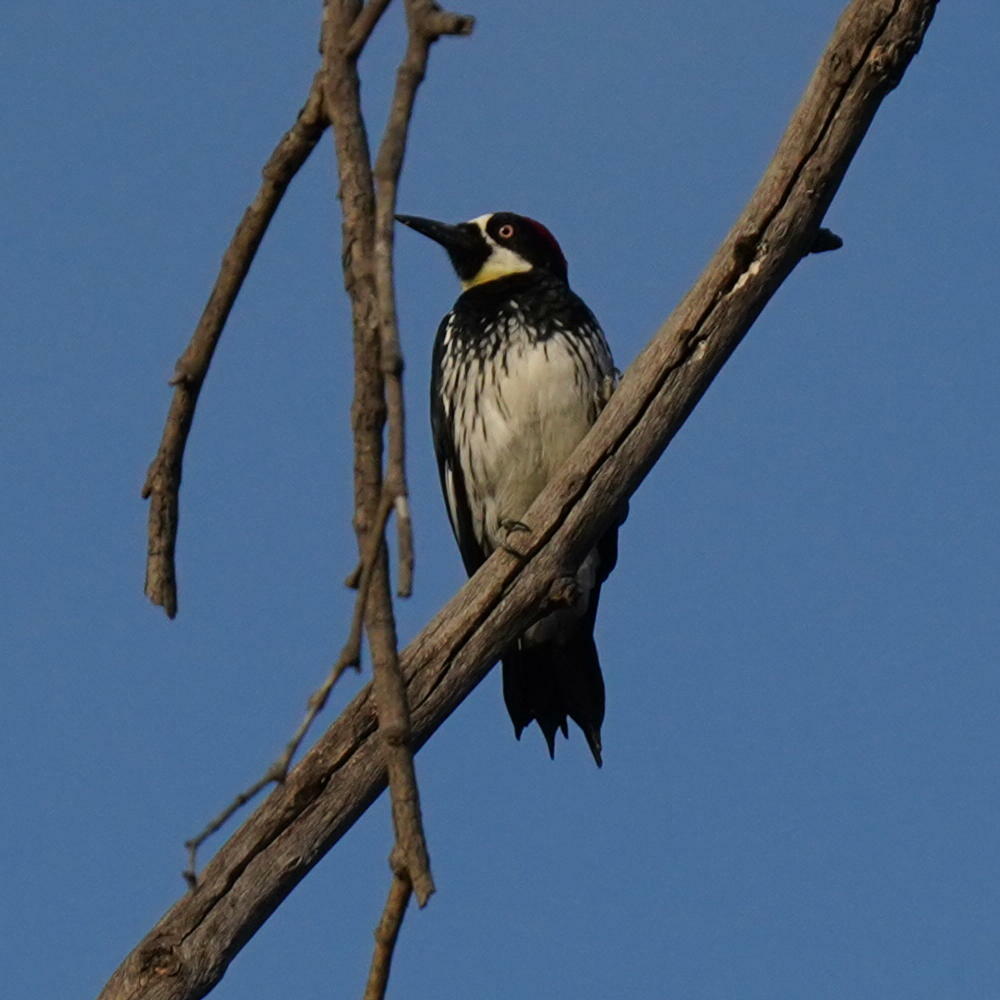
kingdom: Animalia
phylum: Chordata
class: Aves
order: Piciformes
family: Picidae
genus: Melanerpes
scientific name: Melanerpes formicivorus
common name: Acorn woodpecker
